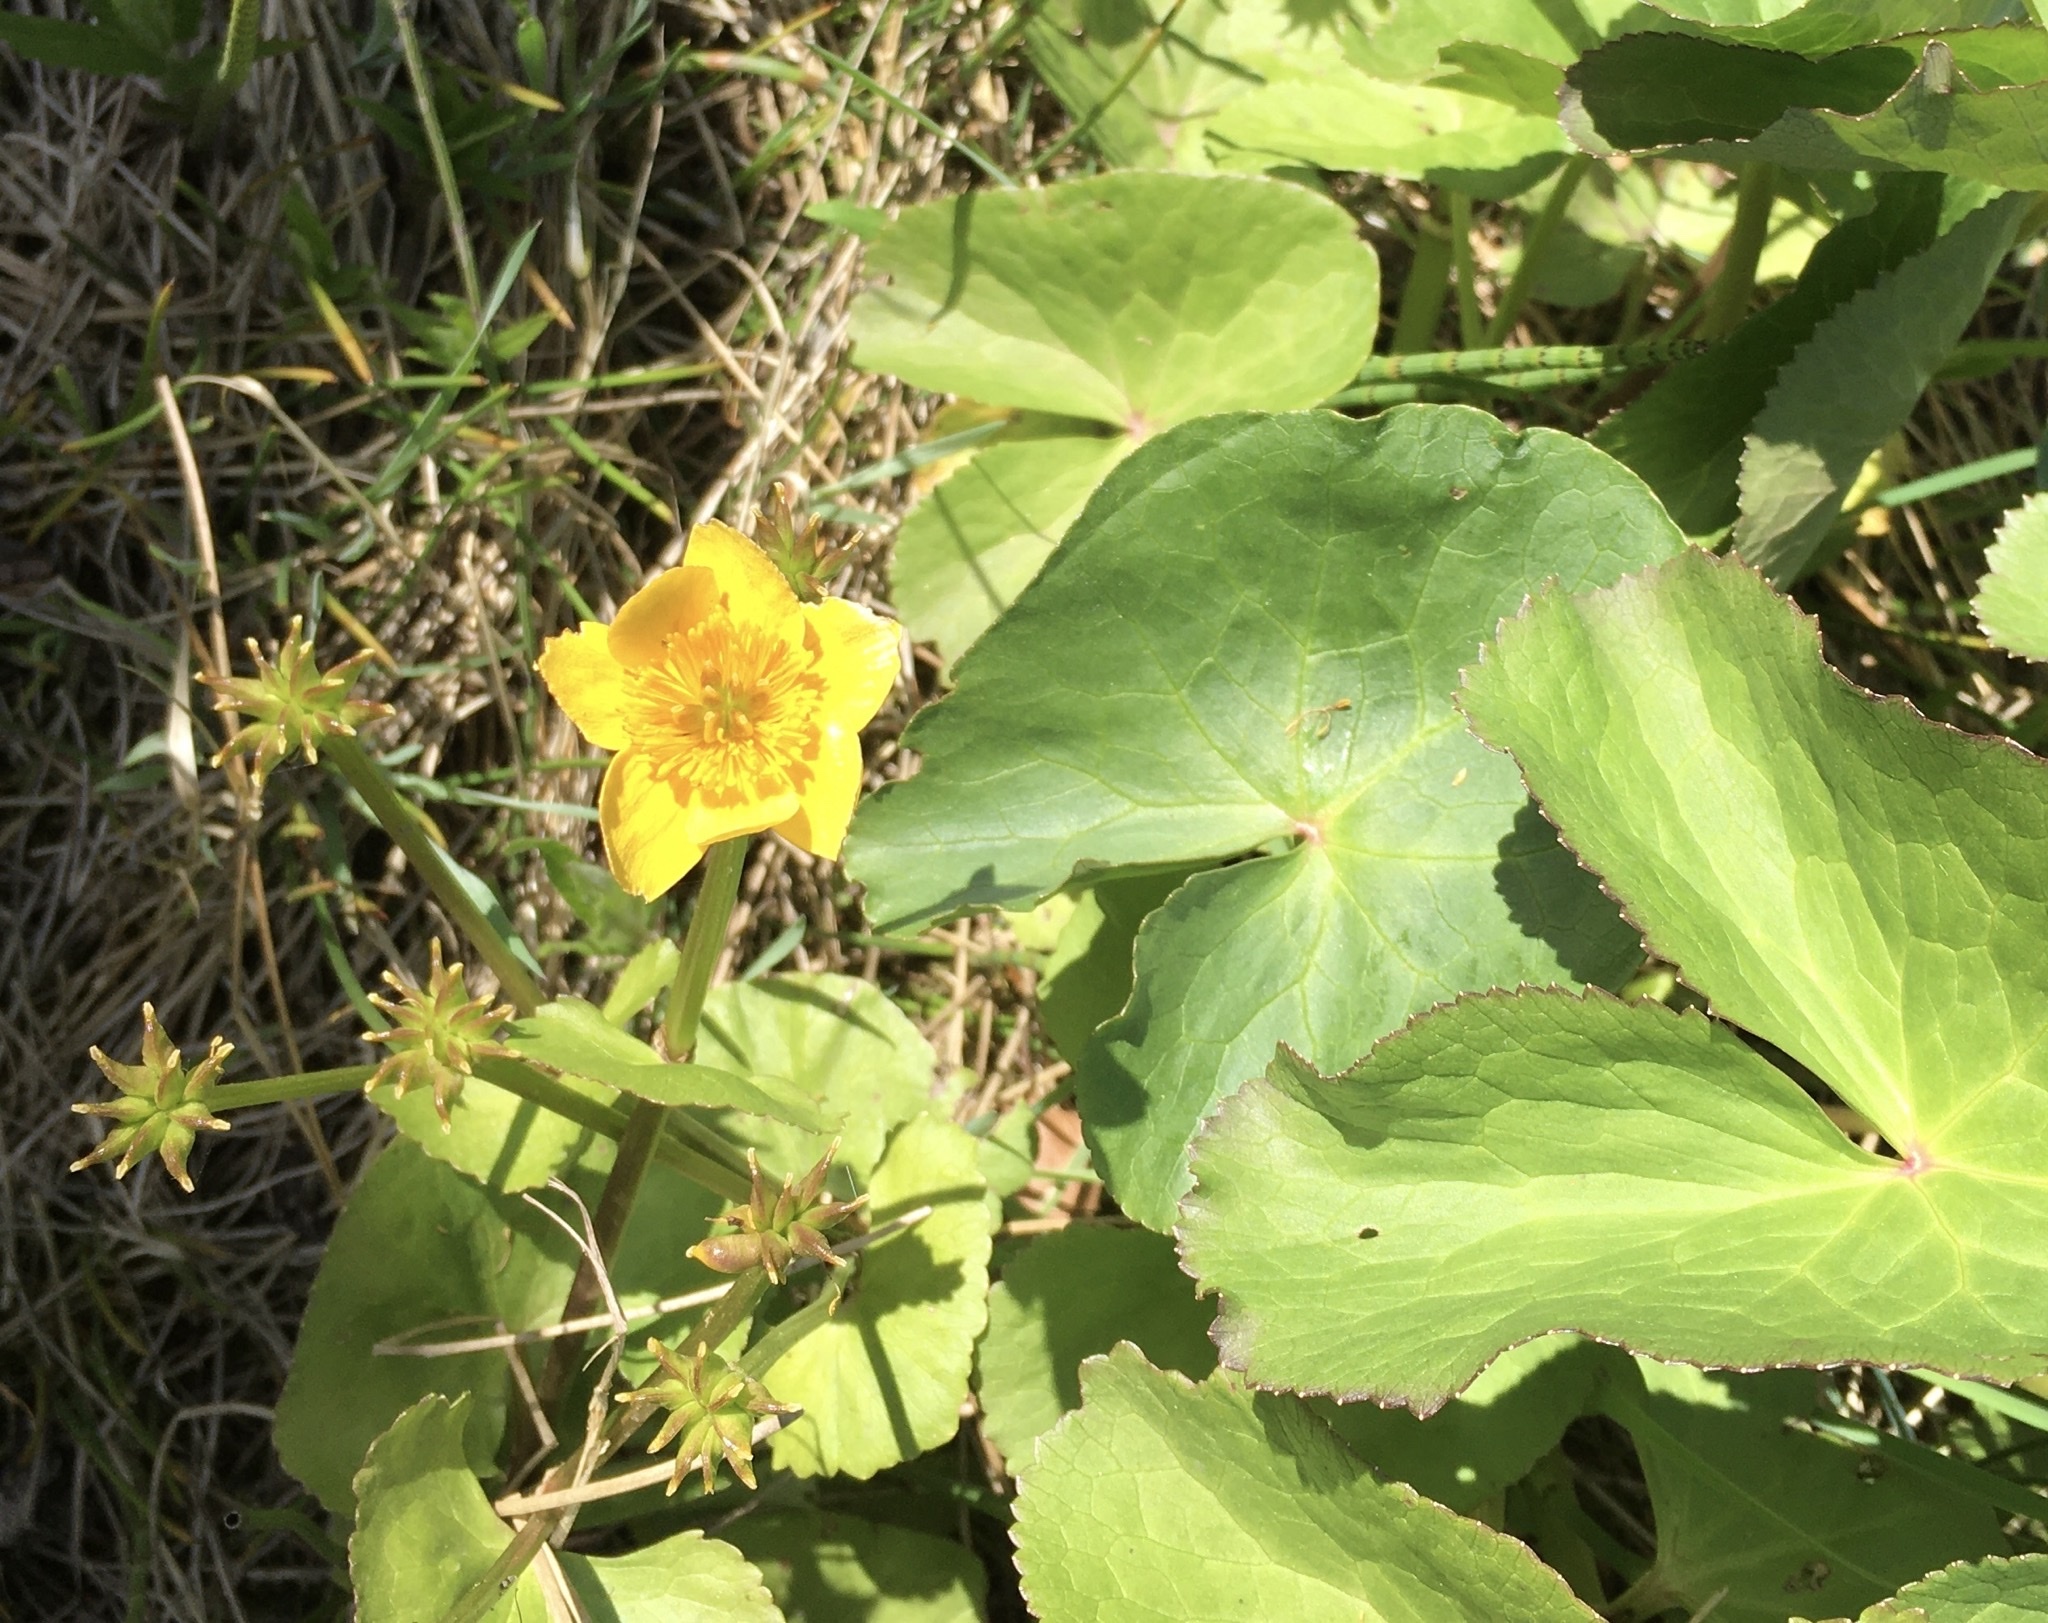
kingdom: Plantae
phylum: Tracheophyta
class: Magnoliopsida
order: Ranunculales
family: Ranunculaceae
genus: Caltha
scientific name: Caltha palustris
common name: Marsh marigold
